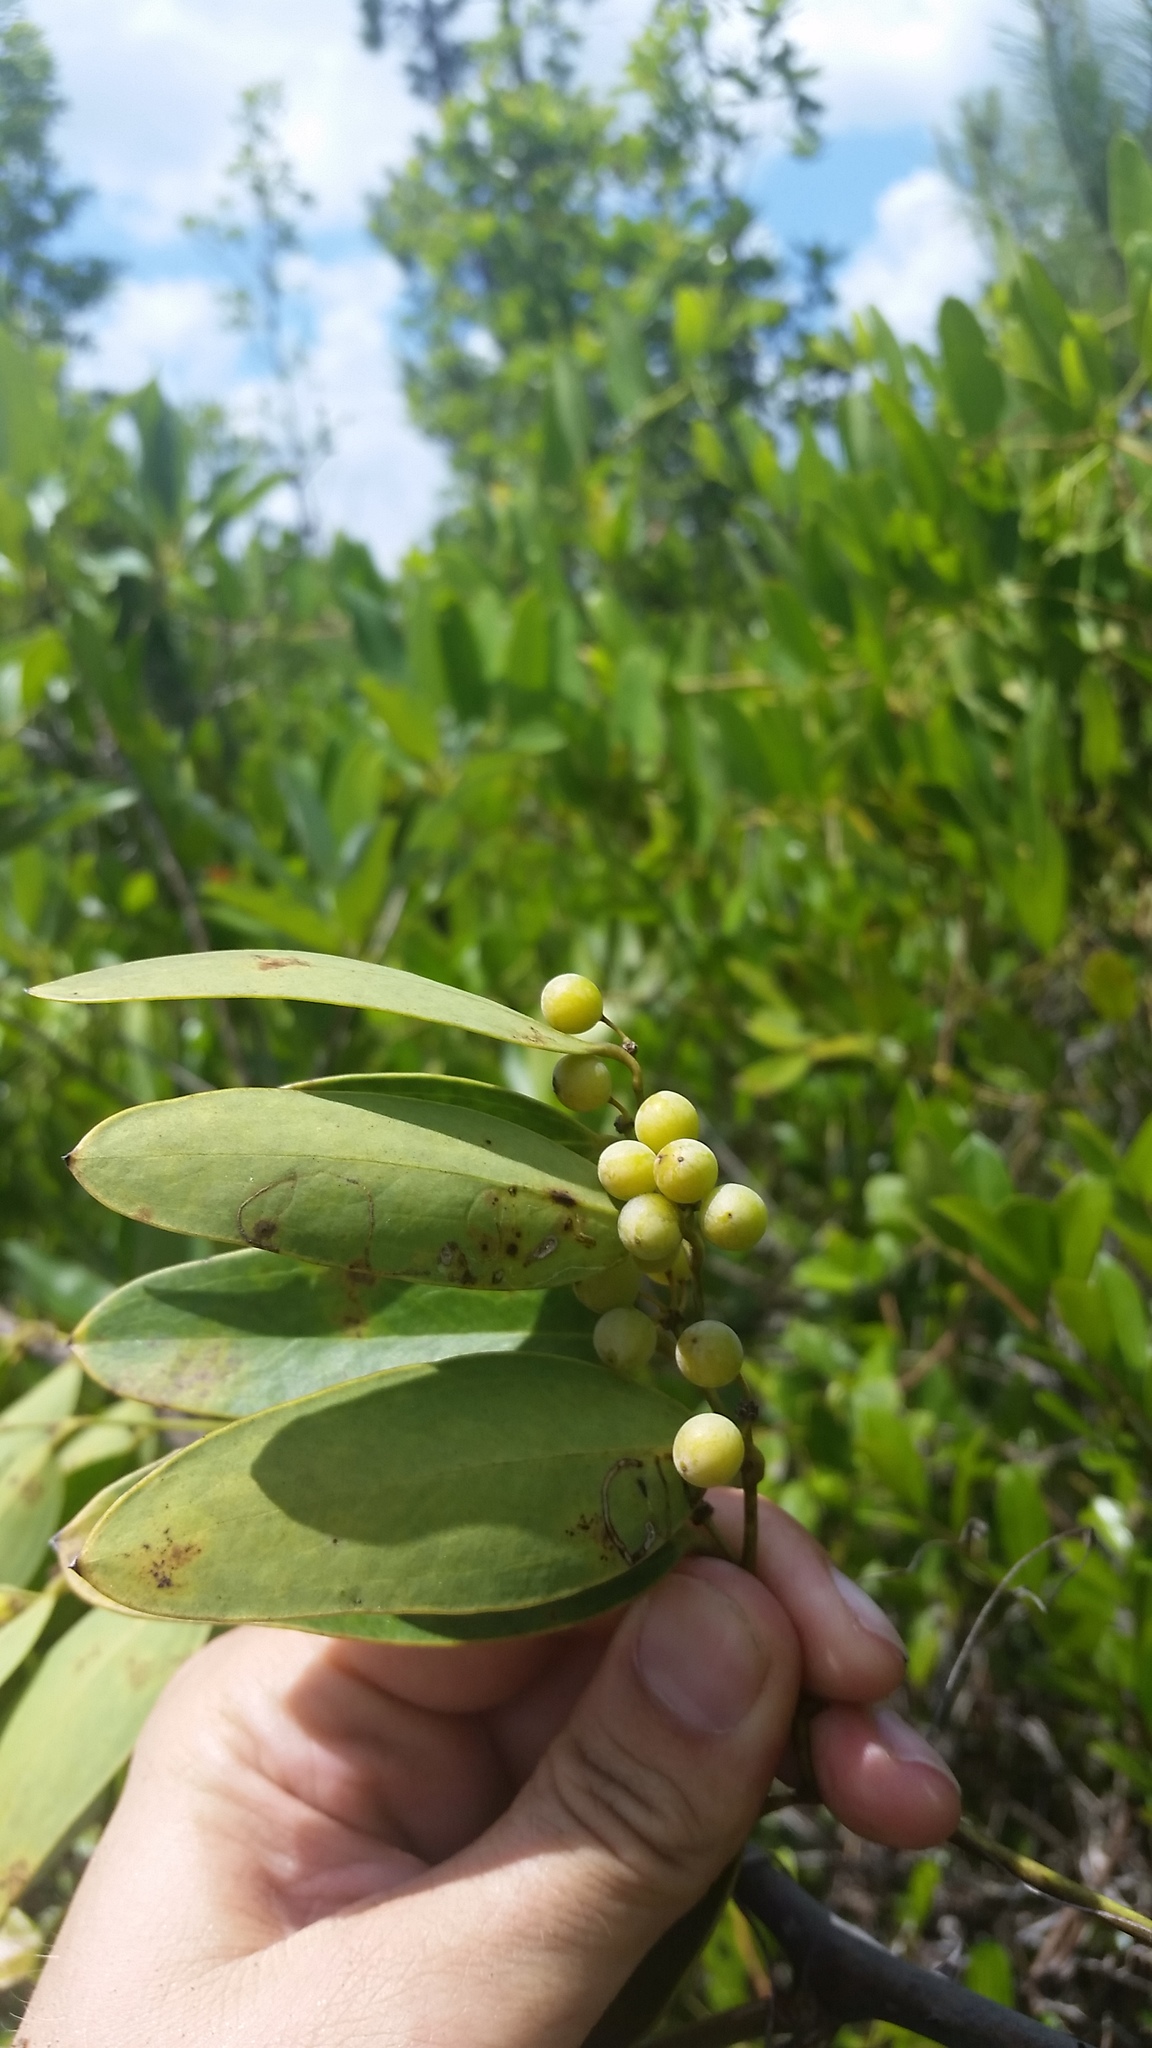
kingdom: Plantae
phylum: Tracheophyta
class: Liliopsida
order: Liliales
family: Smilacaceae
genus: Smilax
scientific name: Smilax laurifolia
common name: Bamboovine
